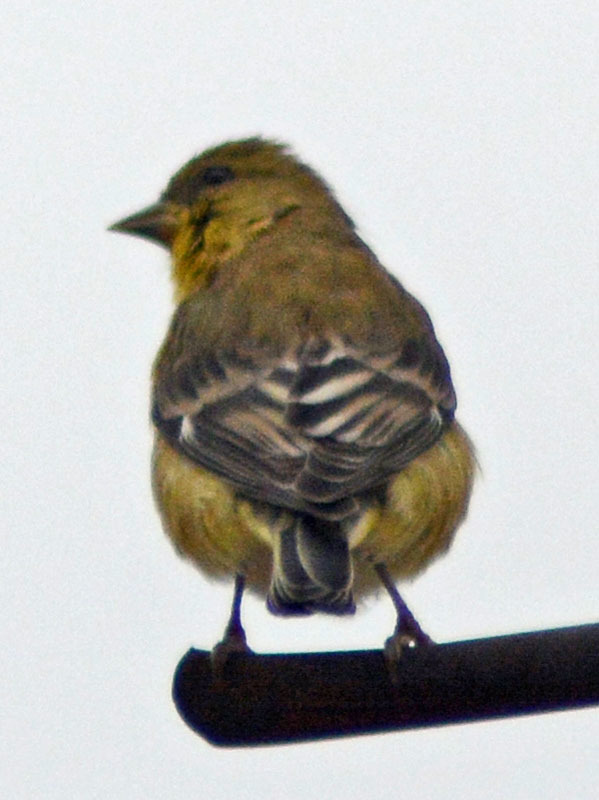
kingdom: Animalia
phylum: Chordata
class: Aves
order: Passeriformes
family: Fringillidae
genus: Spinus
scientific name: Spinus psaltria
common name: Lesser goldfinch
